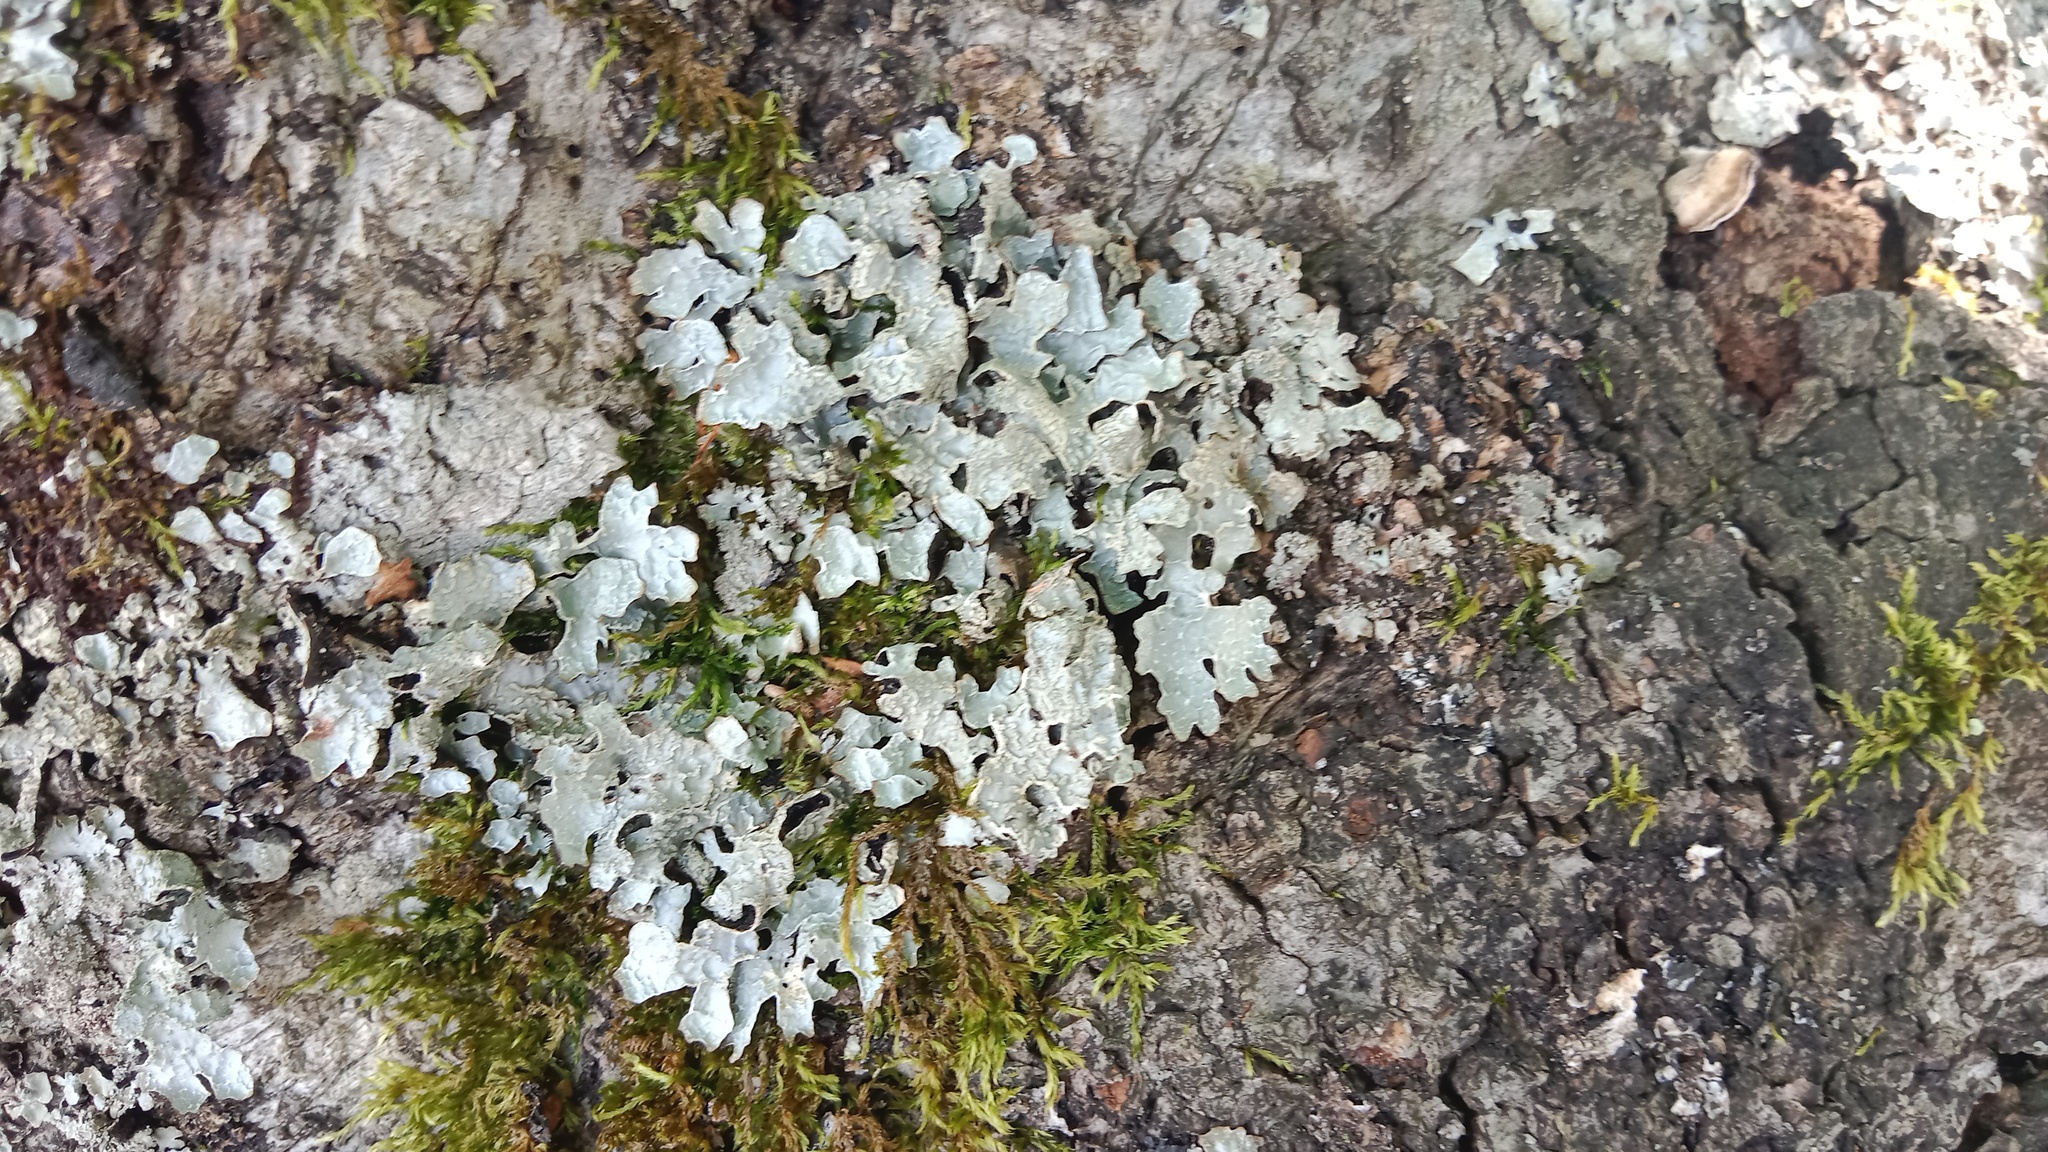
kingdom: Fungi
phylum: Ascomycota
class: Lecanoromycetes
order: Lecanorales
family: Parmeliaceae
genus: Parmelia
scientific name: Parmelia sulcata
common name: Netted shield lichen
